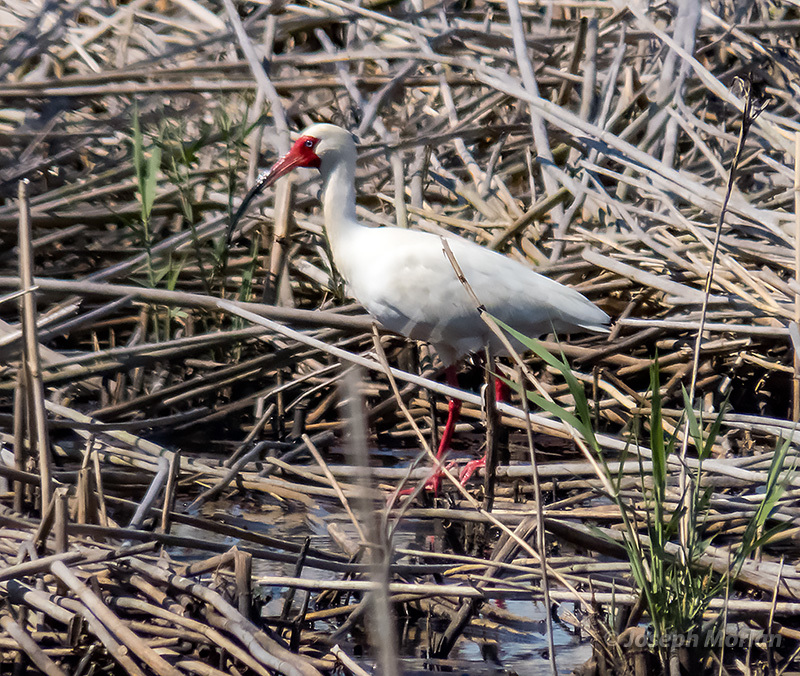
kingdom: Animalia
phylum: Chordata
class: Aves
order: Pelecaniformes
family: Threskiornithidae
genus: Eudocimus
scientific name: Eudocimus albus
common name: White ibis
